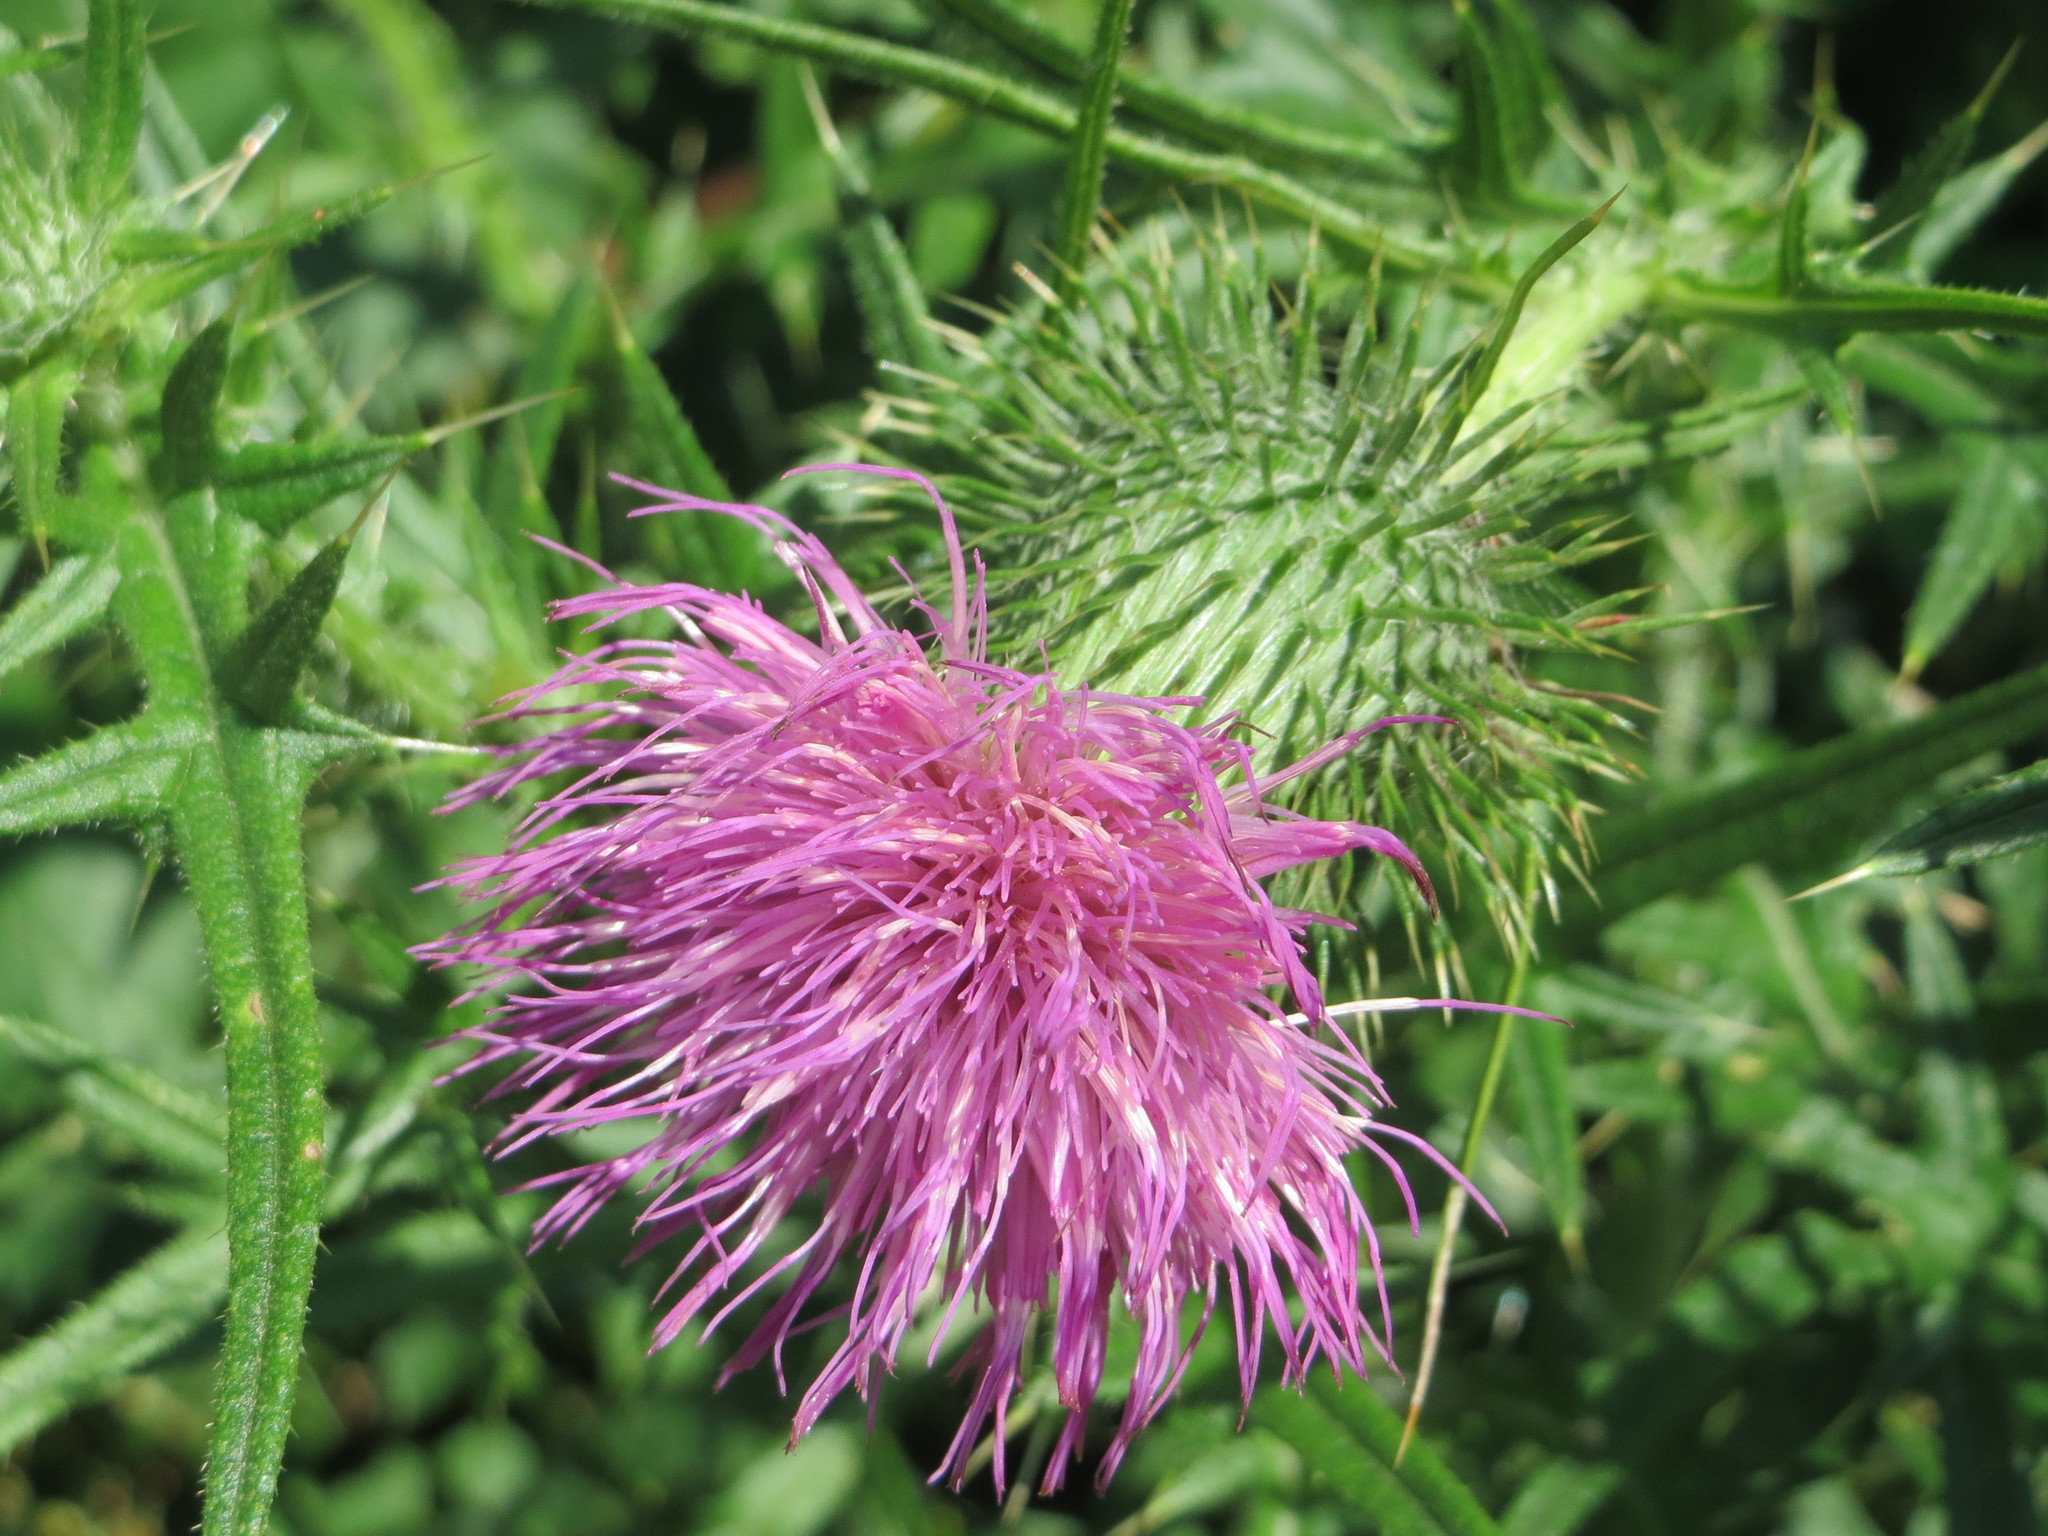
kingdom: Plantae
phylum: Tracheophyta
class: Magnoliopsida
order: Asterales
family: Asteraceae
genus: Cirsium
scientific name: Cirsium vulgare
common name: Bull thistle
